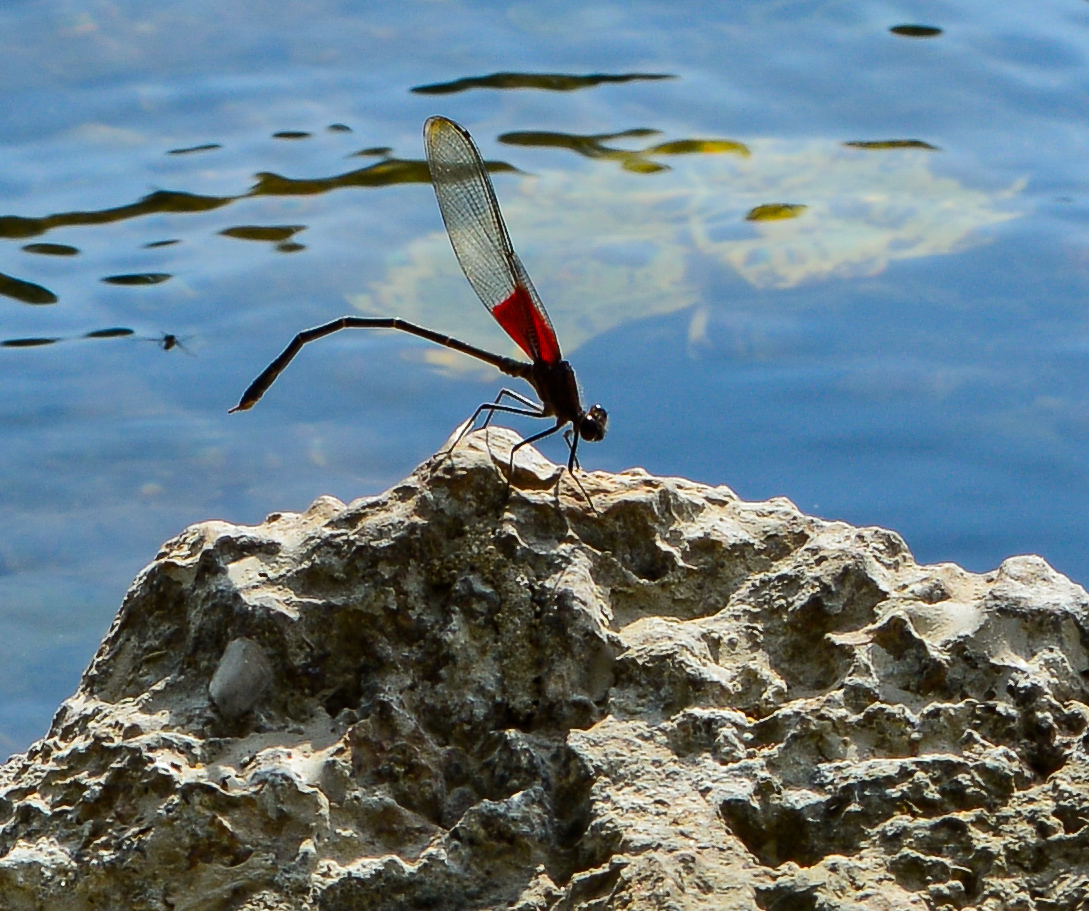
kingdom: Animalia
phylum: Arthropoda
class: Insecta
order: Odonata
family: Calopterygidae
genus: Hetaerina
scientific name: Hetaerina americana
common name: American rubyspot
